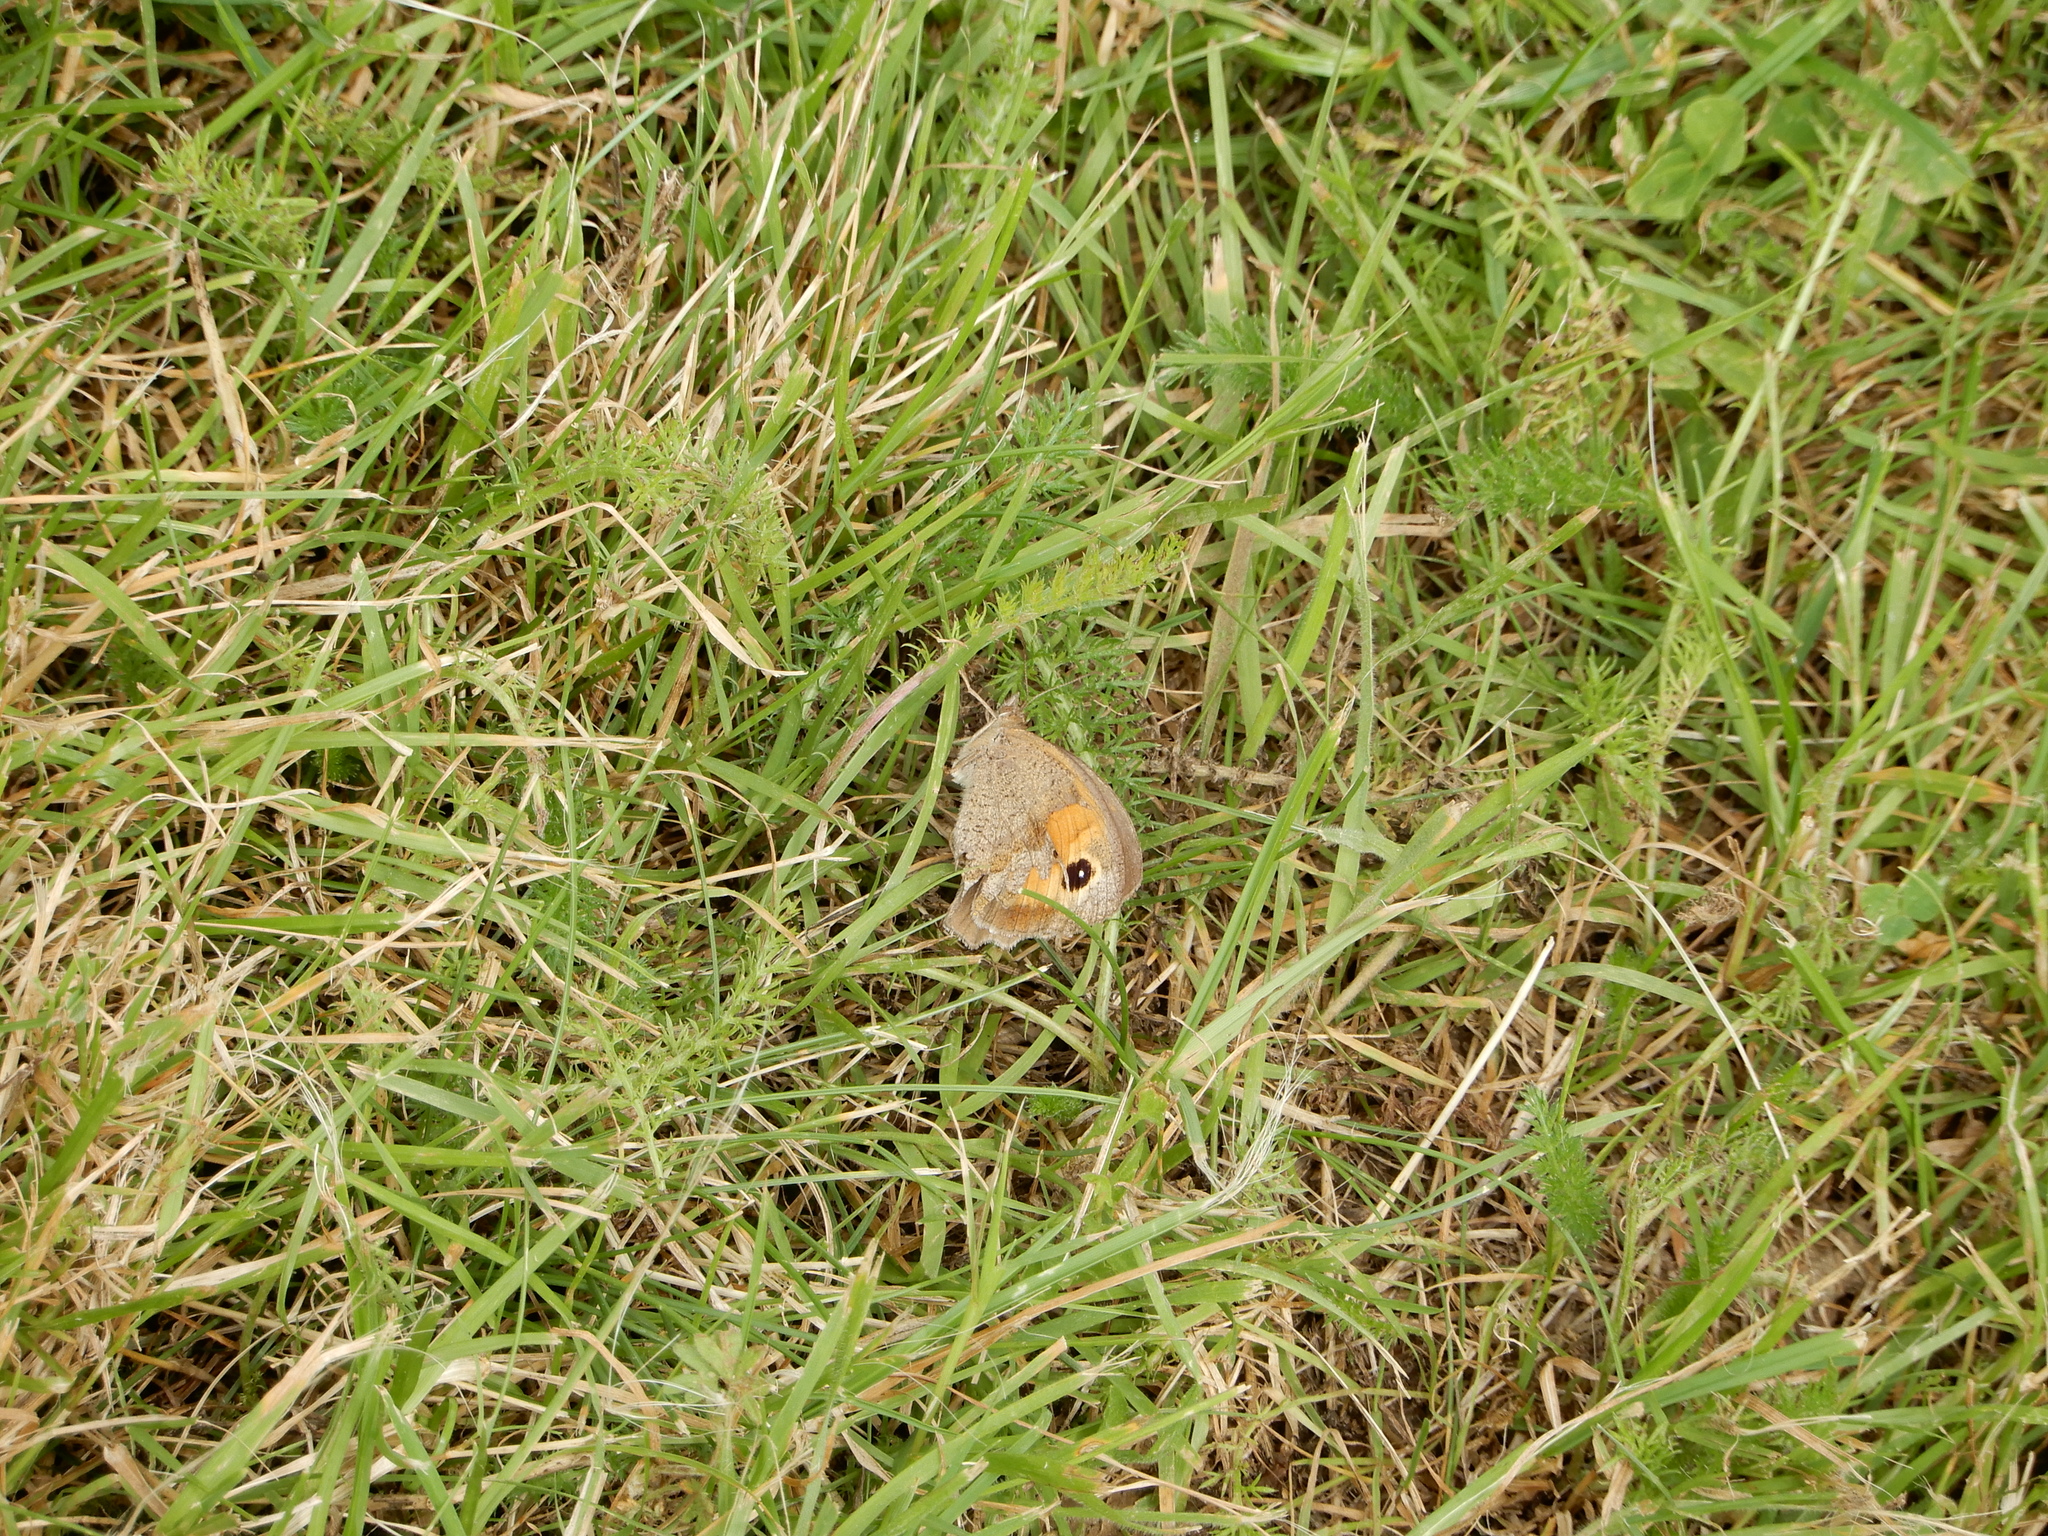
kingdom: Animalia
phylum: Arthropoda
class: Insecta
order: Lepidoptera
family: Nymphalidae
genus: Maniola
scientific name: Maniola jurtina
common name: Meadow brown
